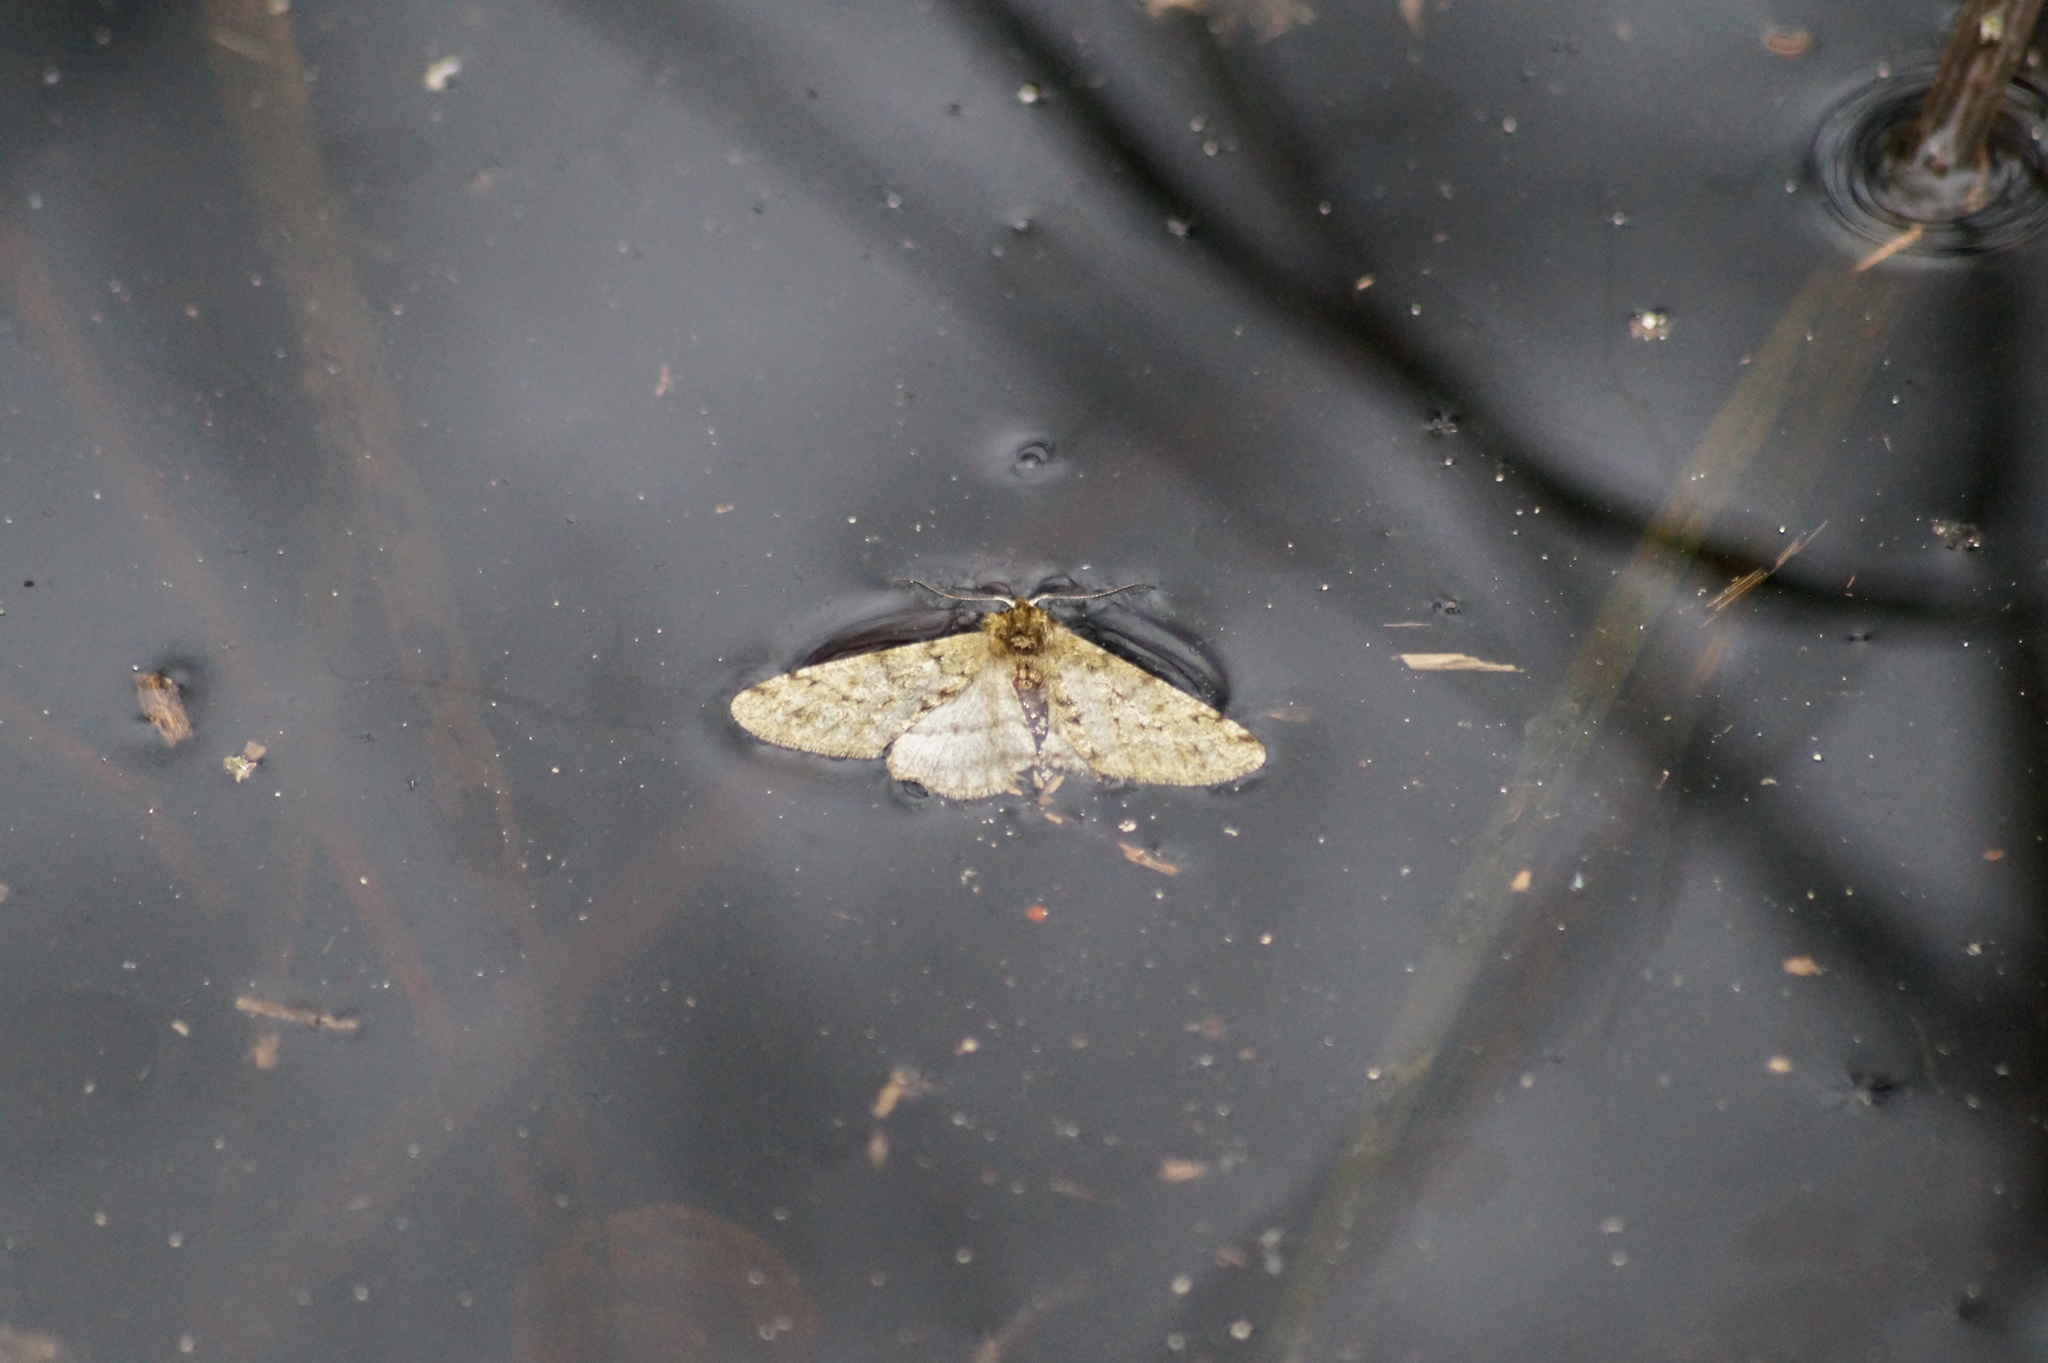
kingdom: Animalia
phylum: Arthropoda
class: Insecta
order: Lepidoptera
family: Geometridae
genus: Phigalia
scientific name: Phigalia pilosaria
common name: Pale brindled beauty
